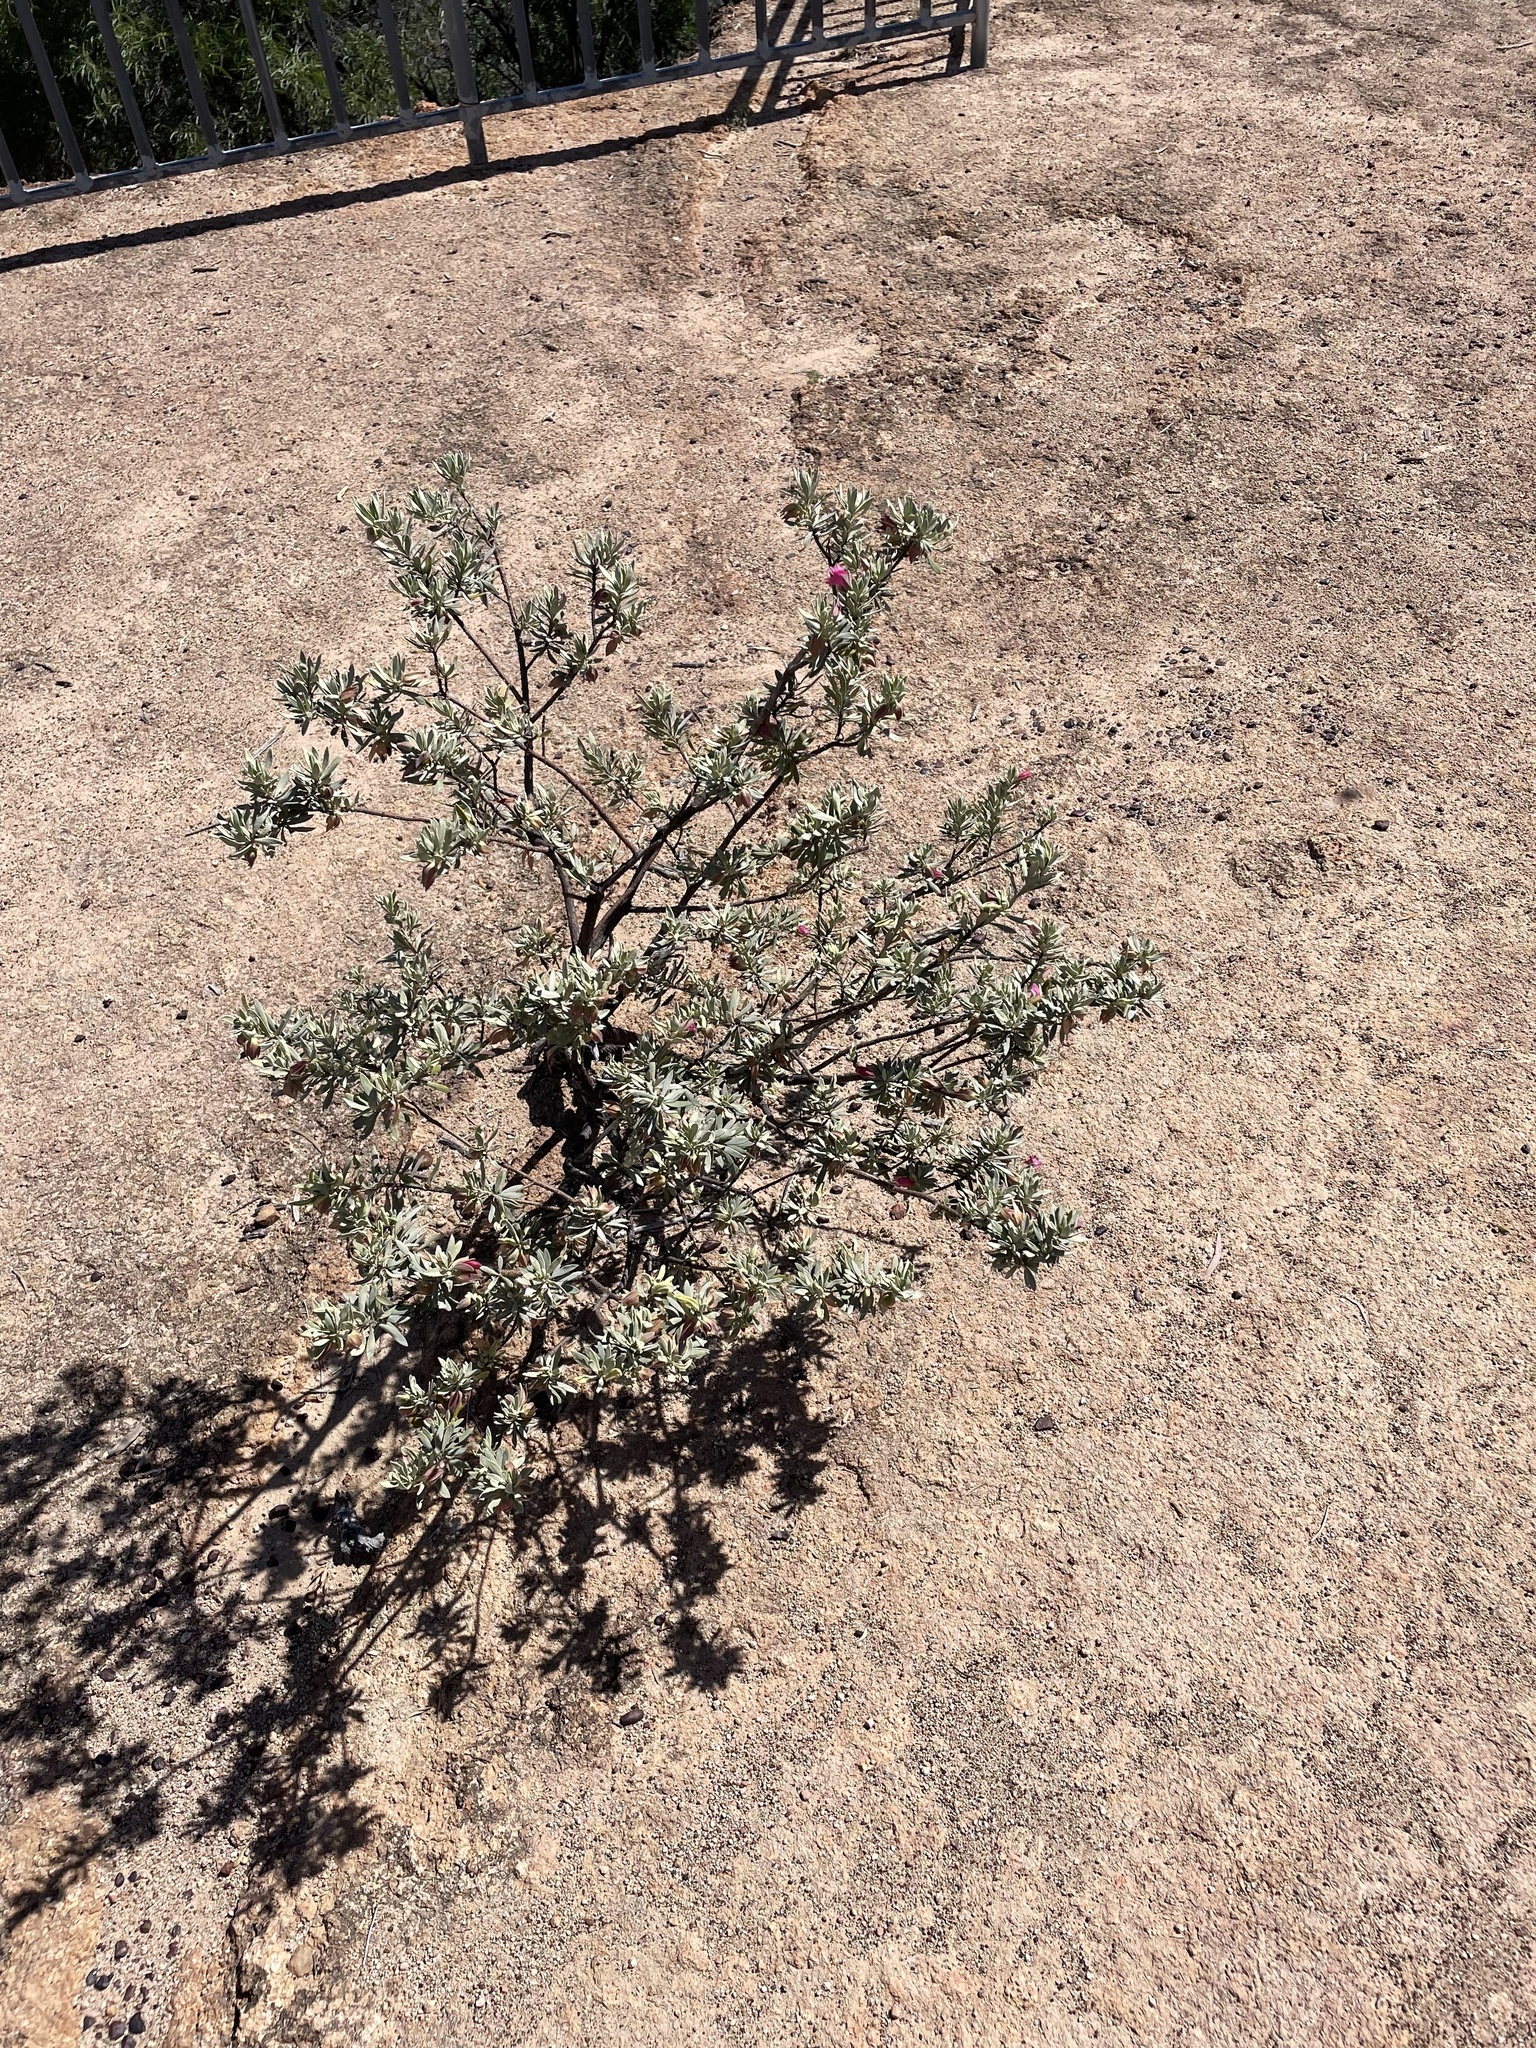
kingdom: Plantae
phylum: Tracheophyta
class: Magnoliopsida
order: Lamiales
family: Scrophulariaceae
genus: Eremophila
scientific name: Eremophila latrobei
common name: Crimson turkeybush
